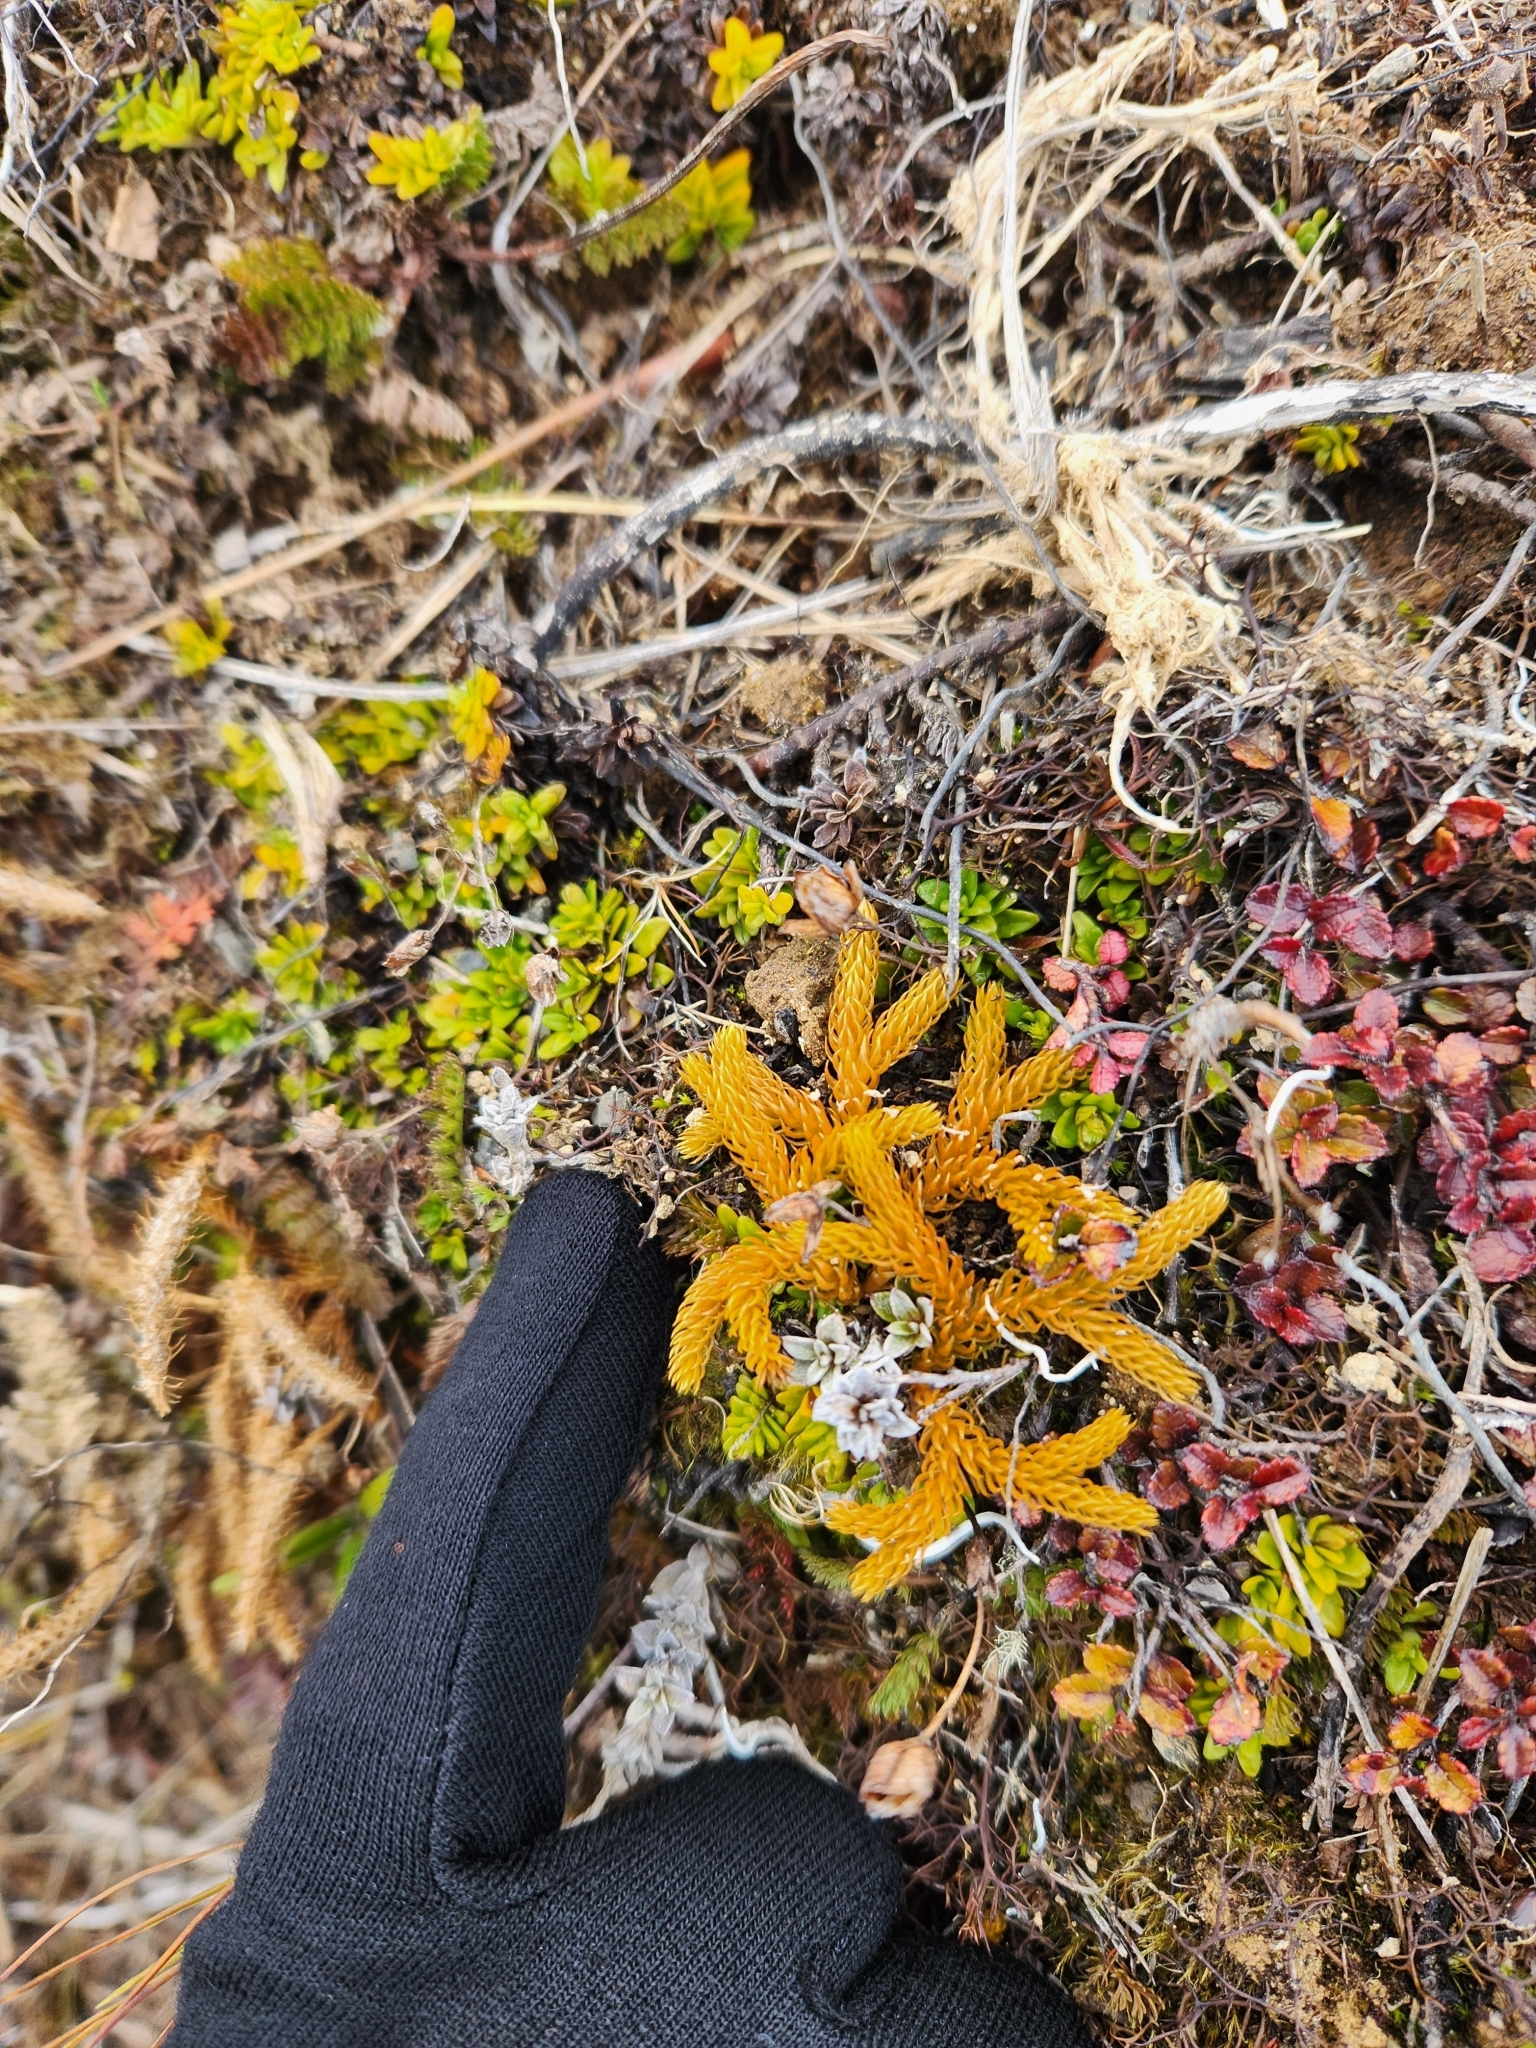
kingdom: Plantae
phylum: Tracheophyta
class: Lycopodiopsida
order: Lycopodiales
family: Lycopodiaceae
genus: Austrolycopodium
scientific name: Austrolycopodium fastigiatum
